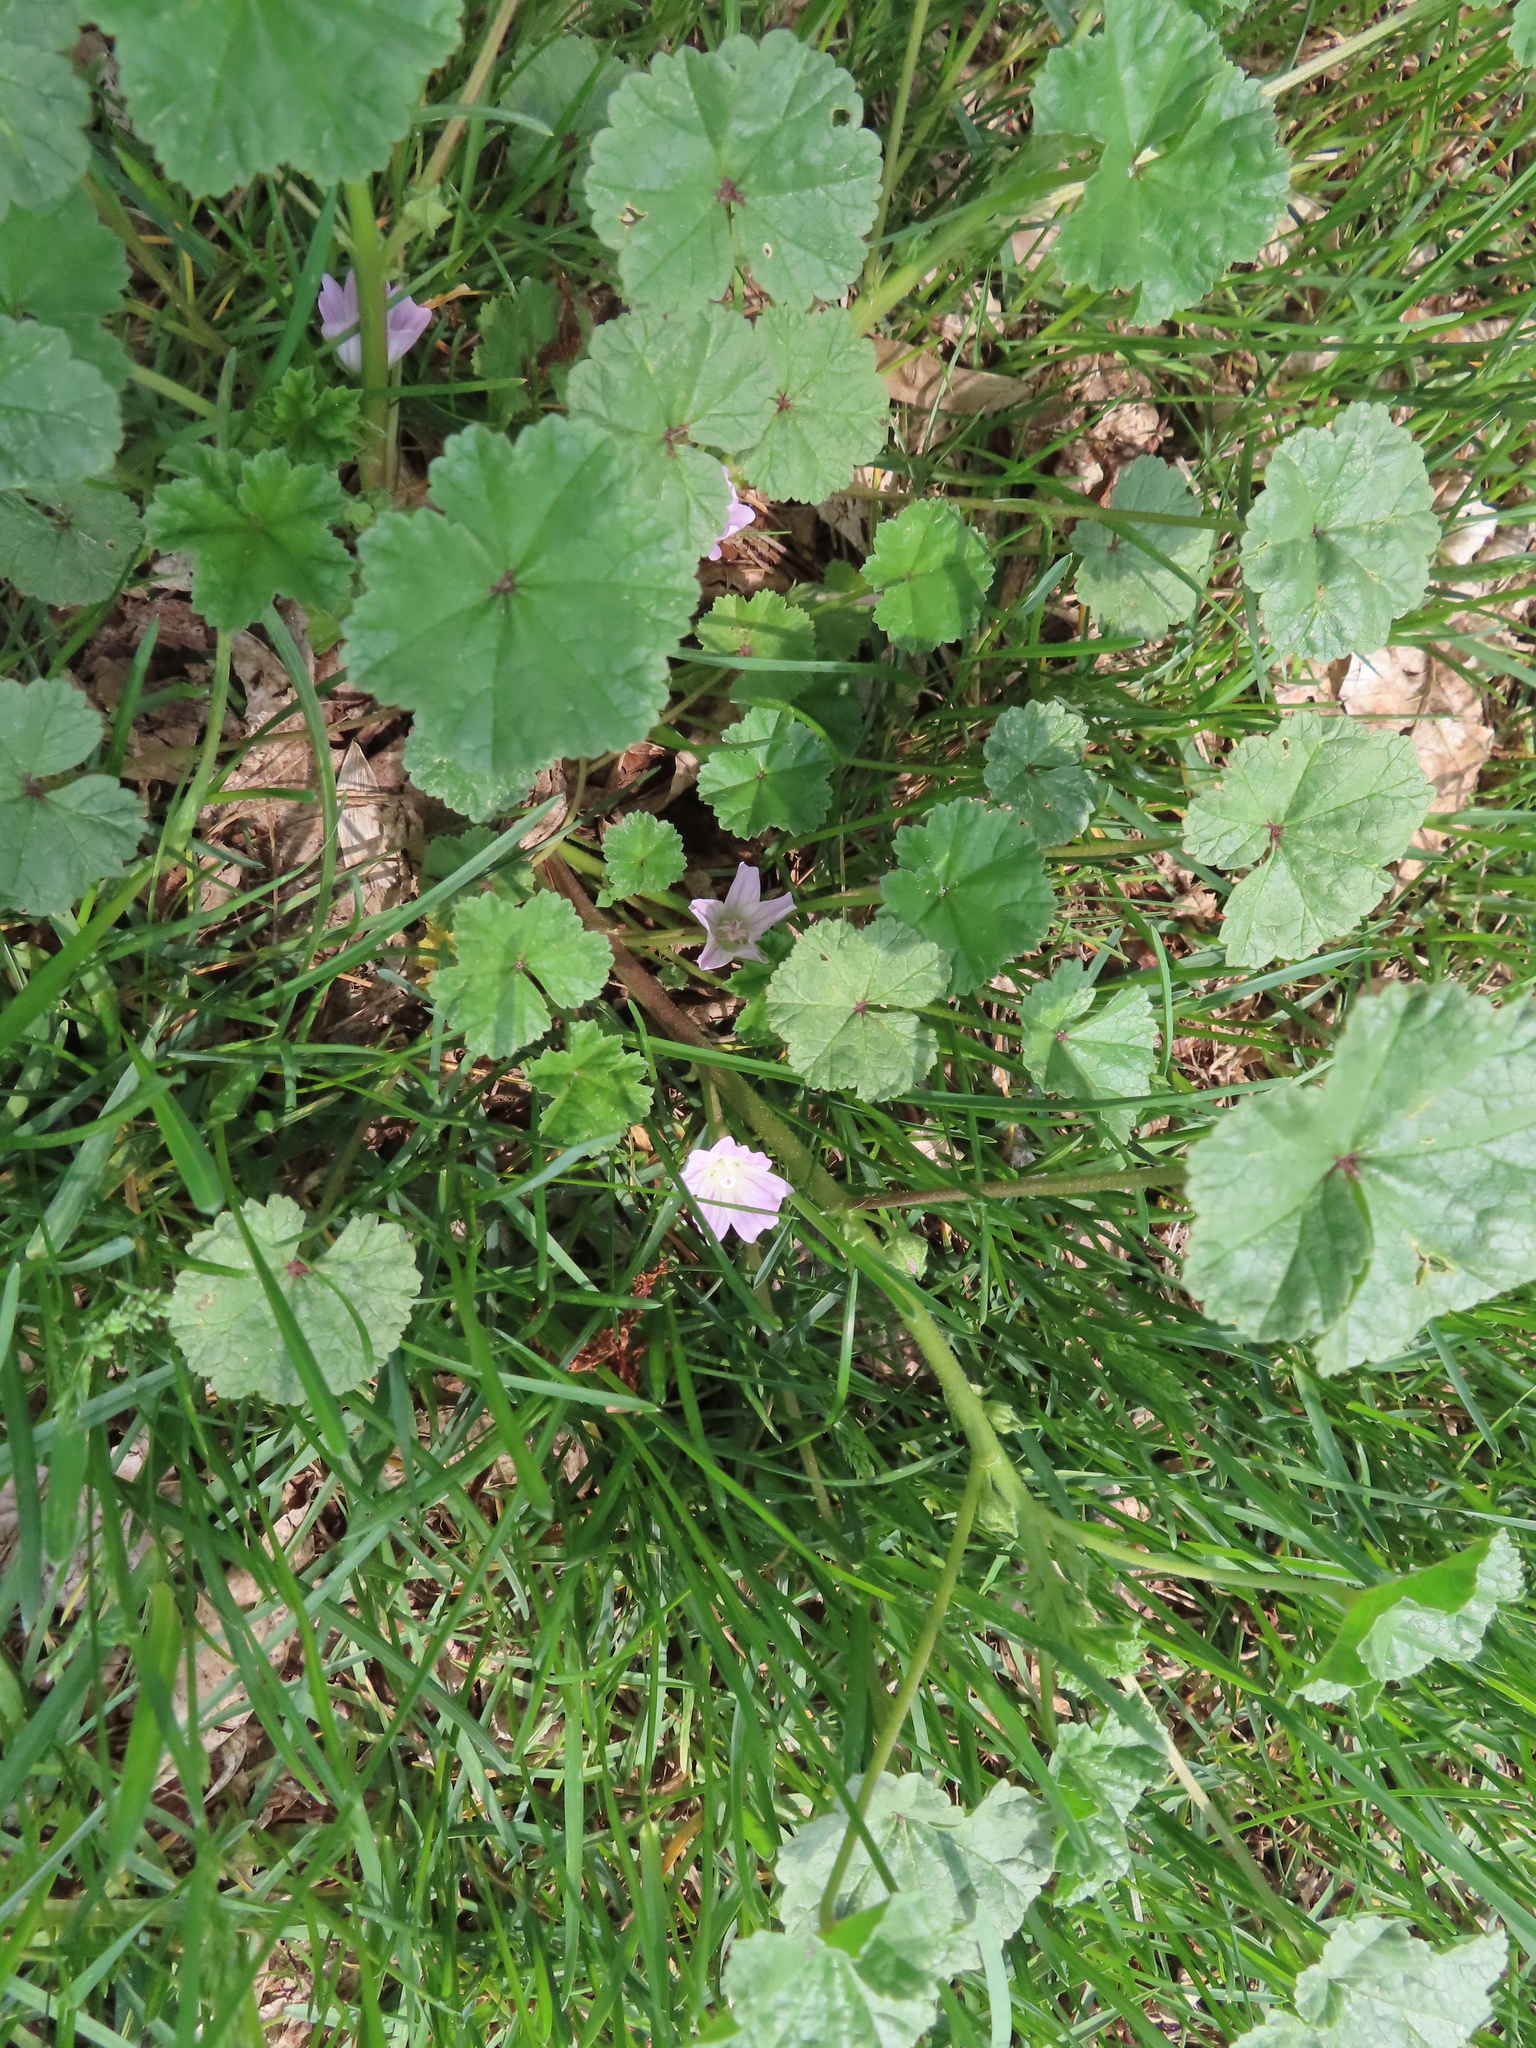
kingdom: Plantae
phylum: Tracheophyta
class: Magnoliopsida
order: Malvales
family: Malvaceae
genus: Malva
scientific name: Malva neglecta
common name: Common mallow
